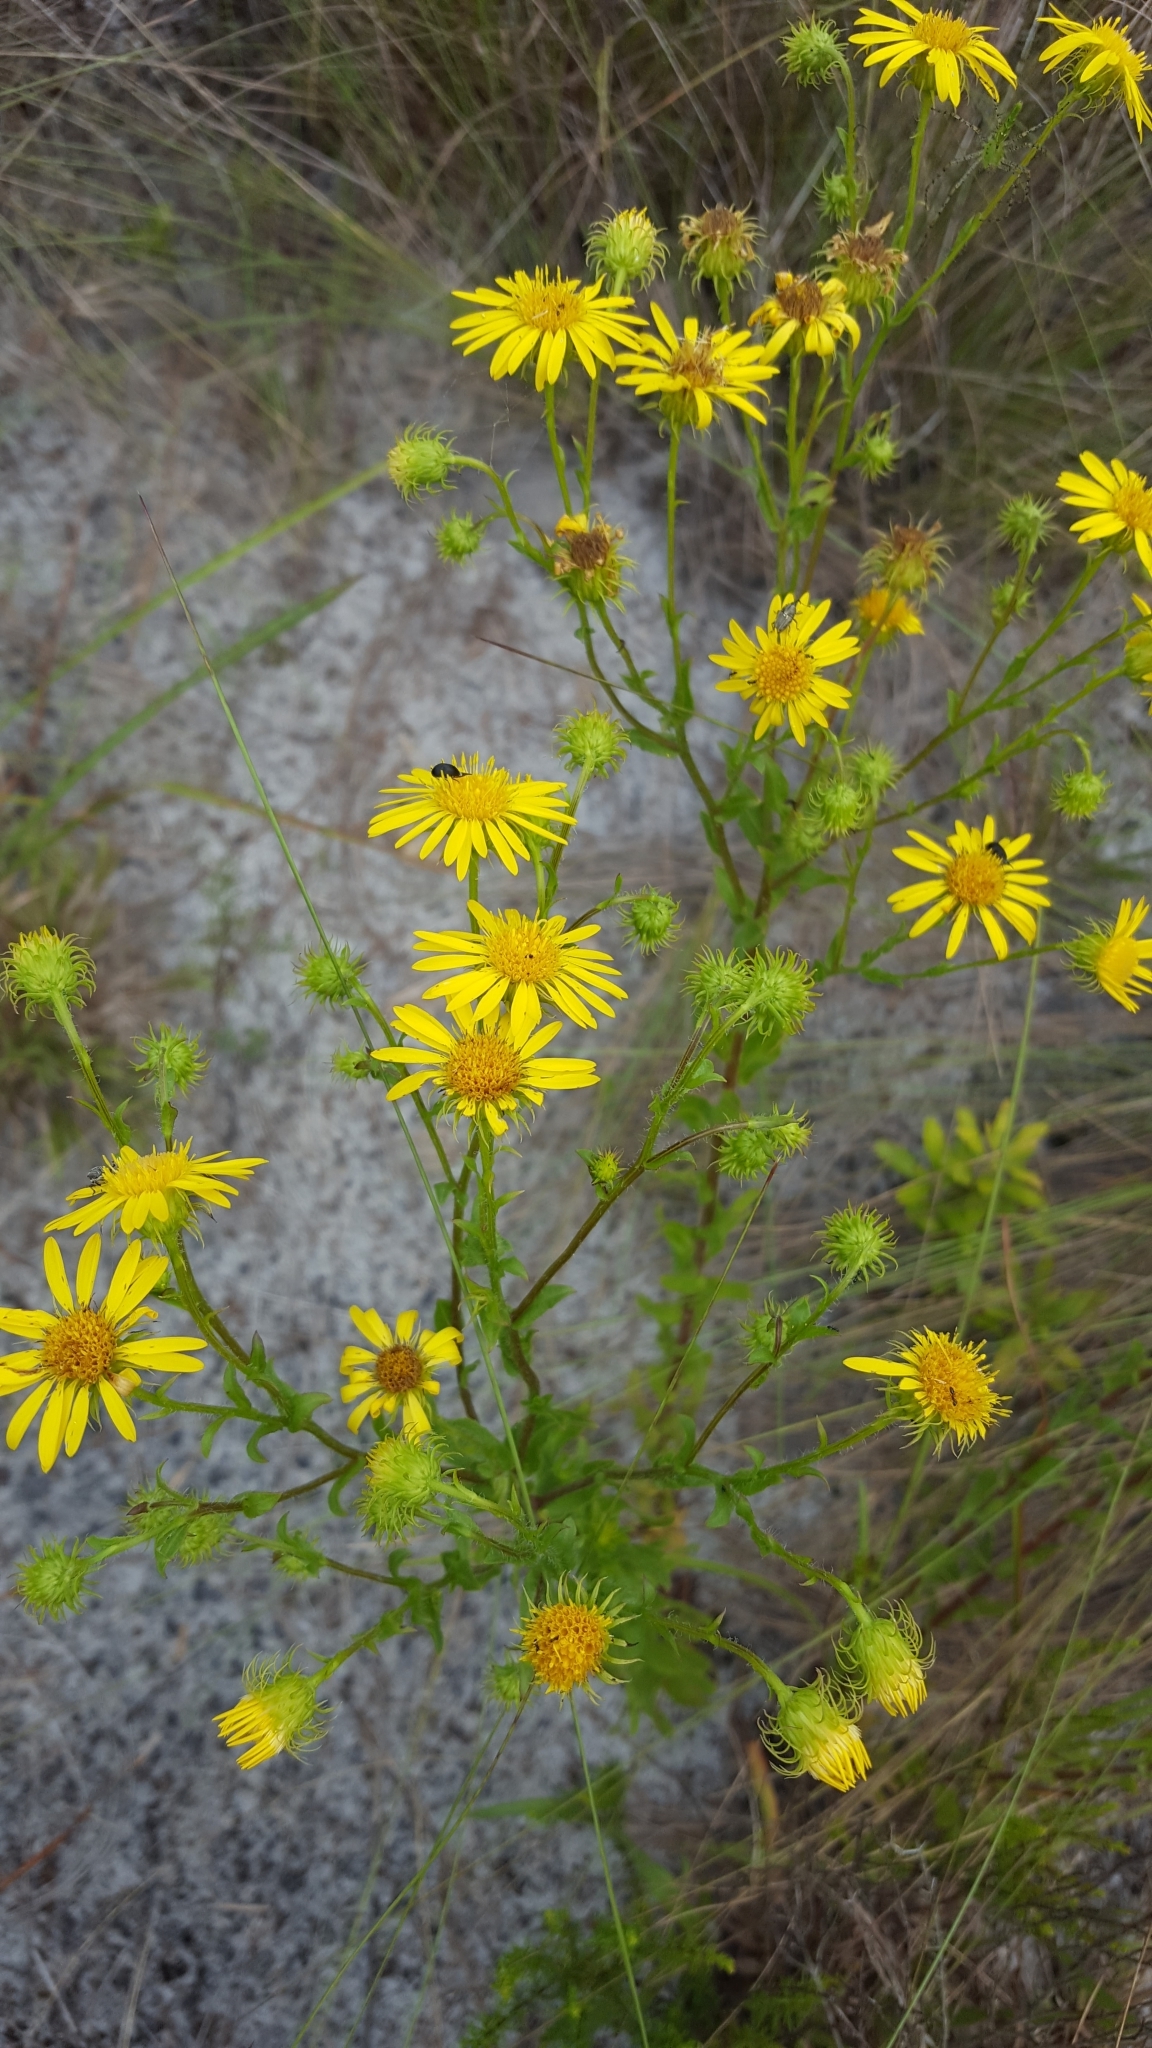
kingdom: Plantae
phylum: Tracheophyta
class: Magnoliopsida
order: Asterales
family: Asteraceae
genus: Chrysopsis
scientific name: Chrysopsis subulata
